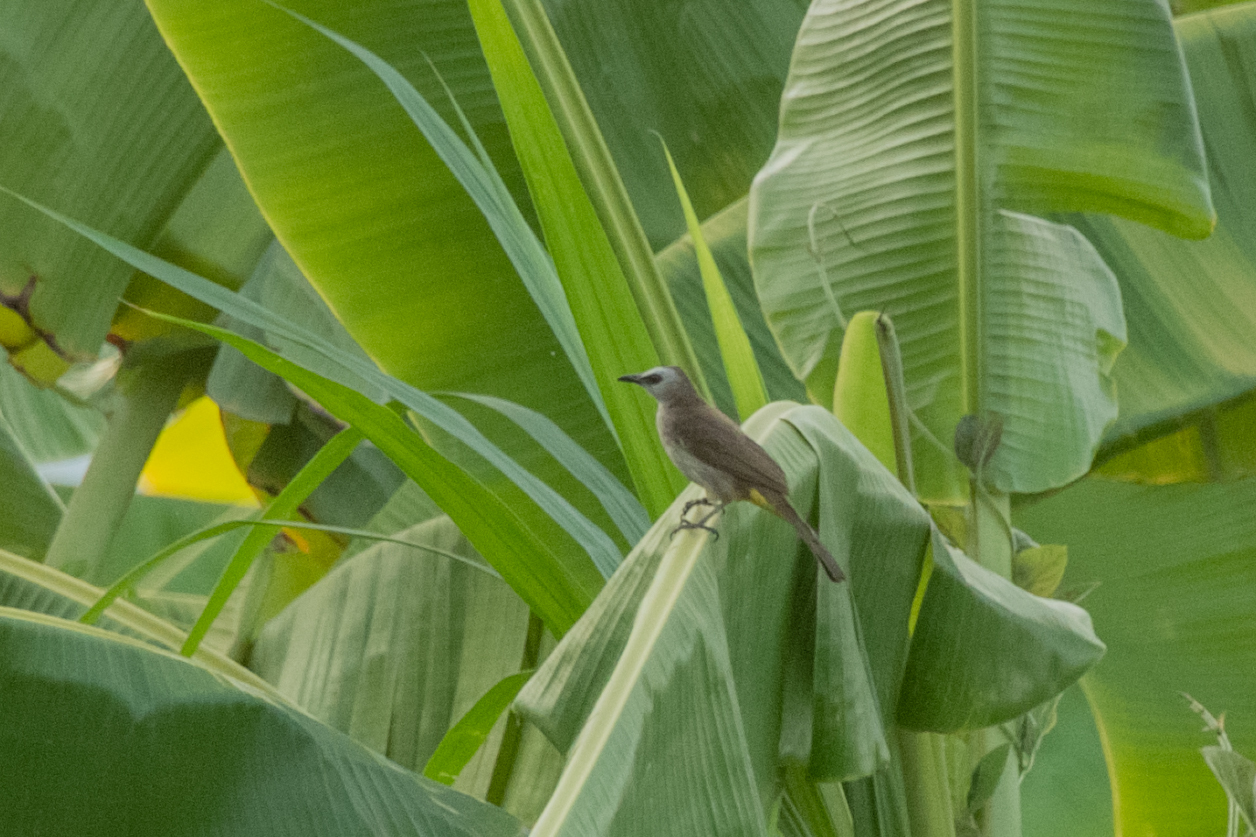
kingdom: Animalia
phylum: Chordata
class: Aves
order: Passeriformes
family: Pycnonotidae
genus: Pycnonotus
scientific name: Pycnonotus goiavier
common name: Yellow-vented bulbul
